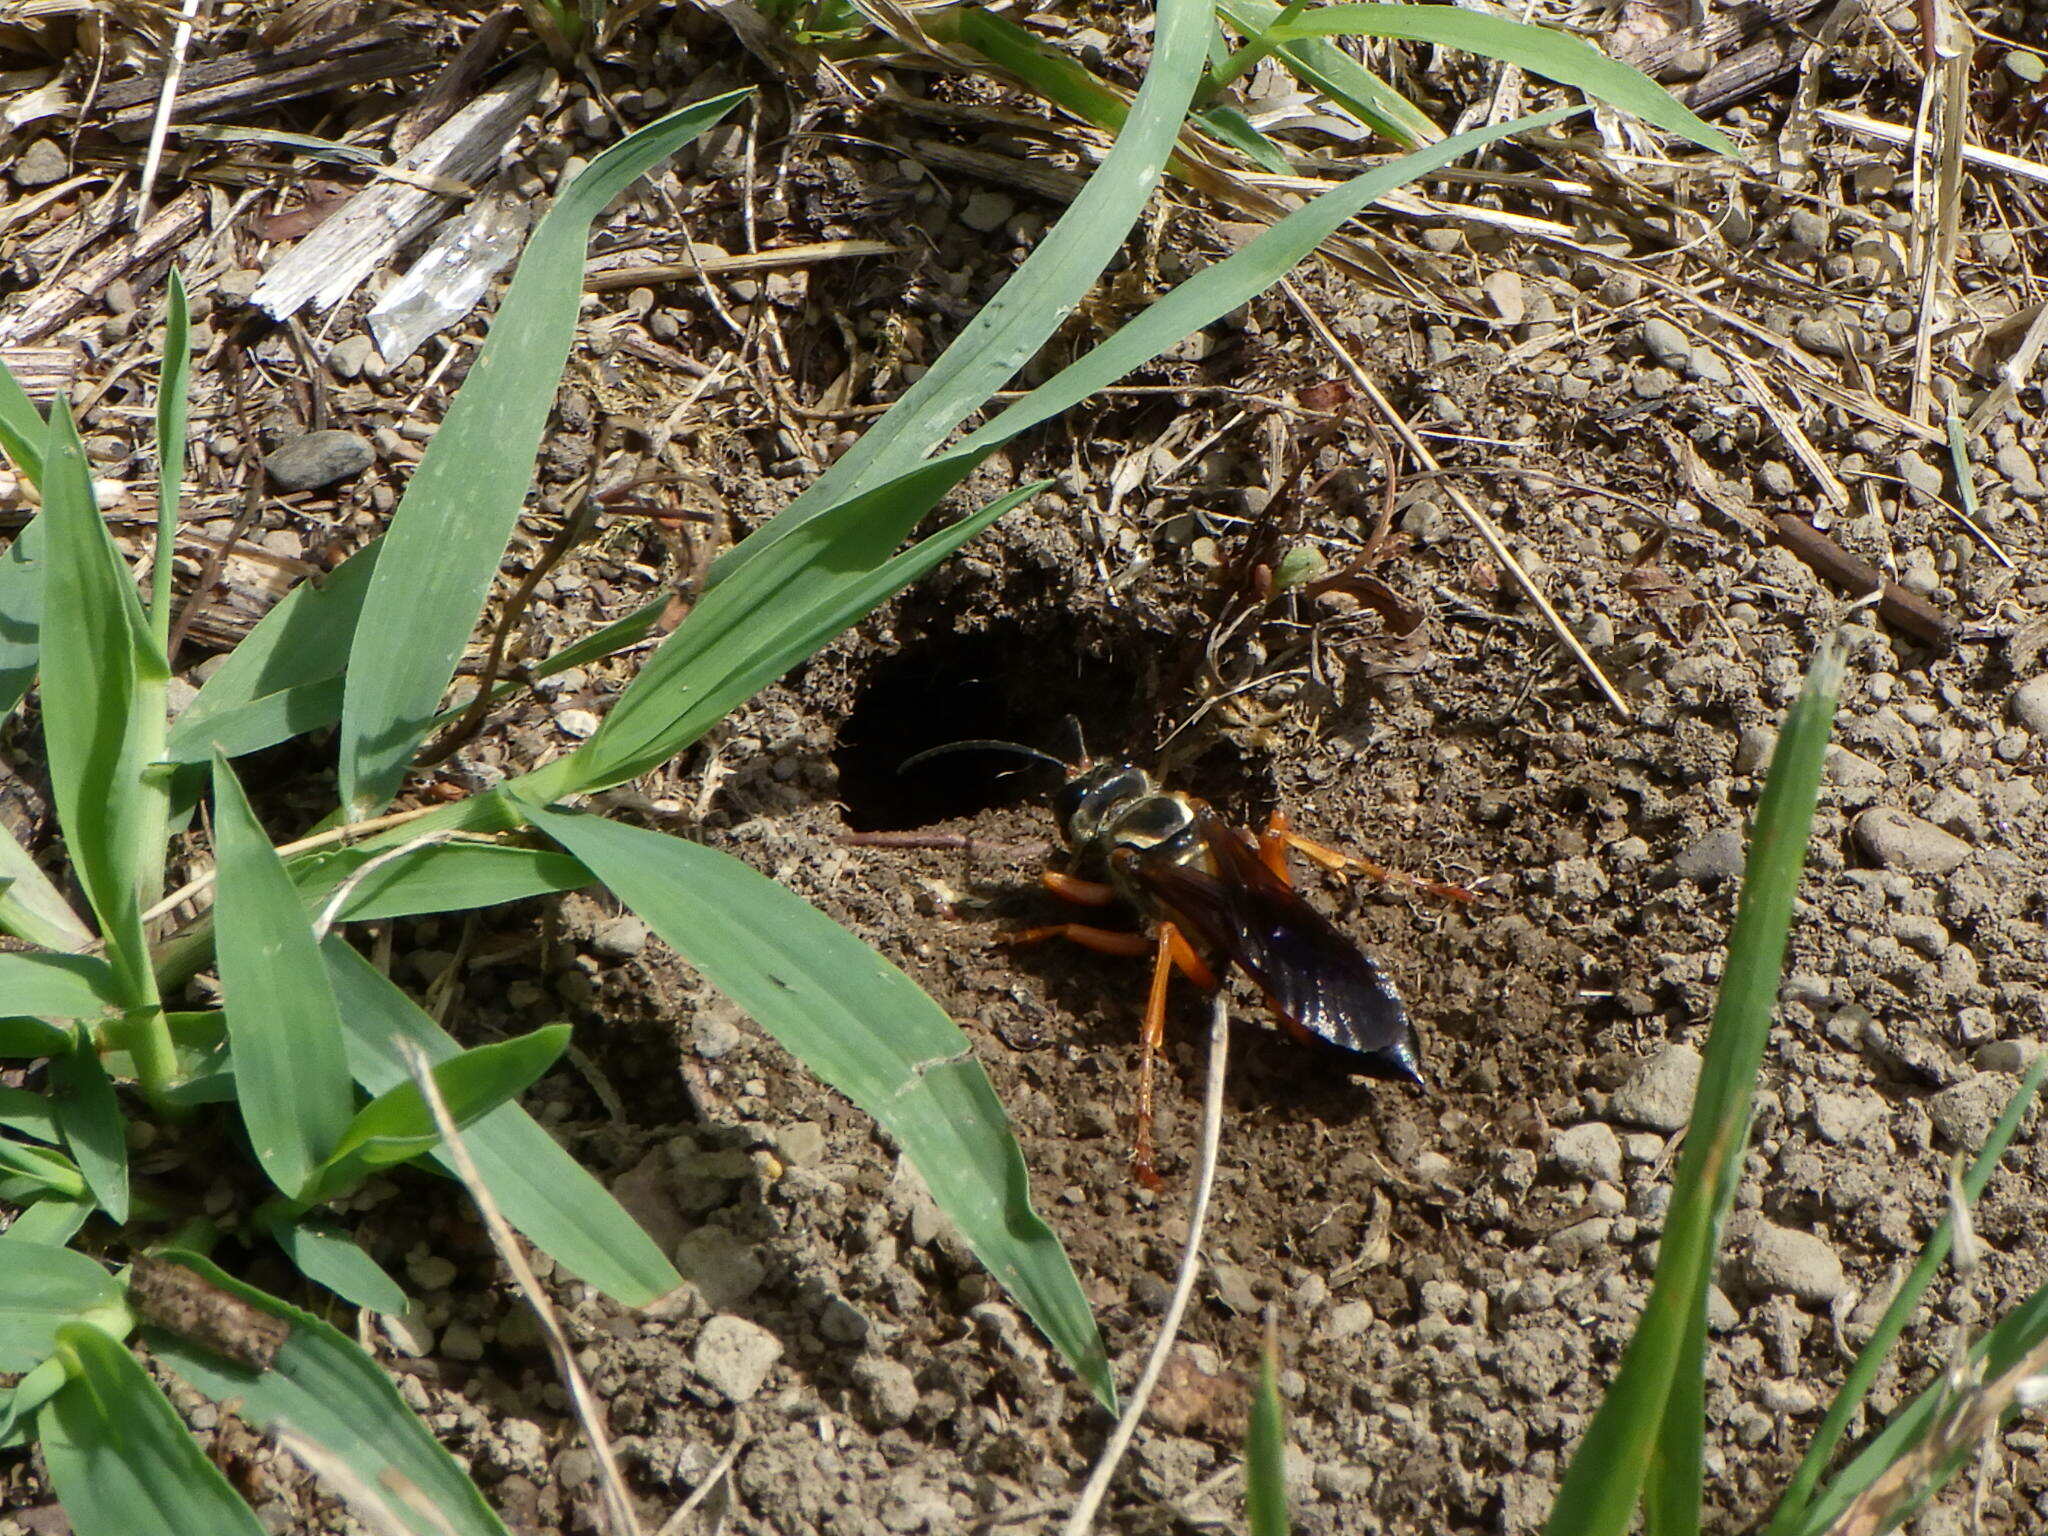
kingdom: Animalia
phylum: Arthropoda
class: Insecta
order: Hymenoptera
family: Sphecidae
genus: Sphex
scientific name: Sphex ichneumoneus
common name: Great golden digger wasp
